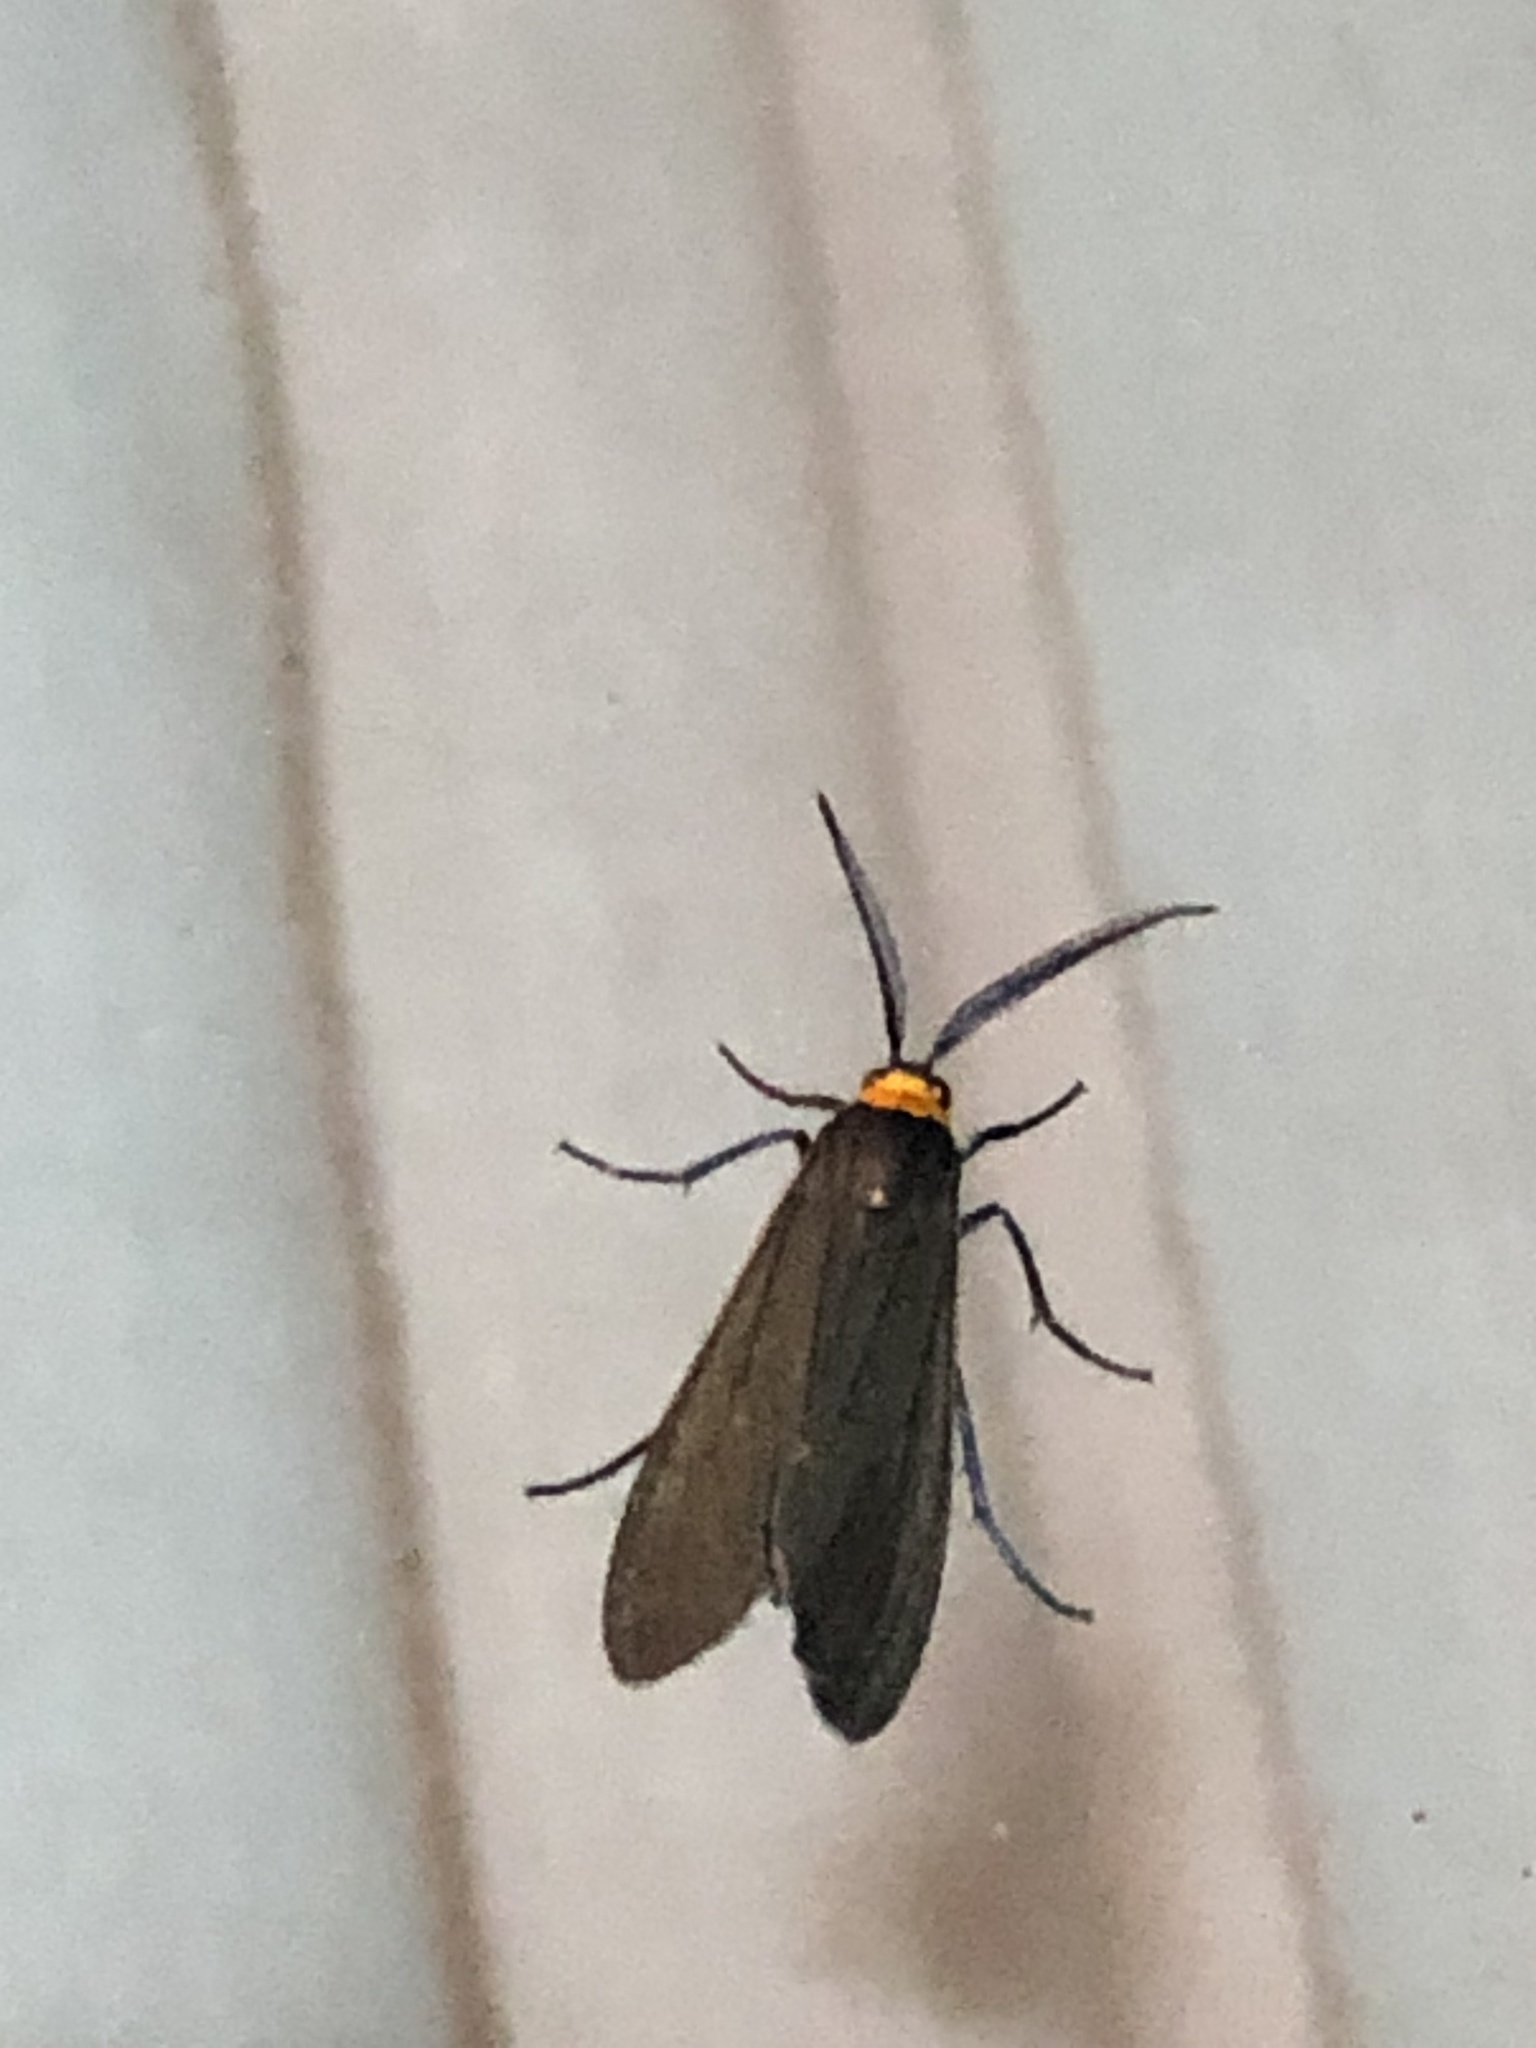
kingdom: Animalia
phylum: Arthropoda
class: Insecta
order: Lepidoptera
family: Erebidae
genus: Cisseps
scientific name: Cisseps fulvicollis
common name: Yellow-collared scape moth
